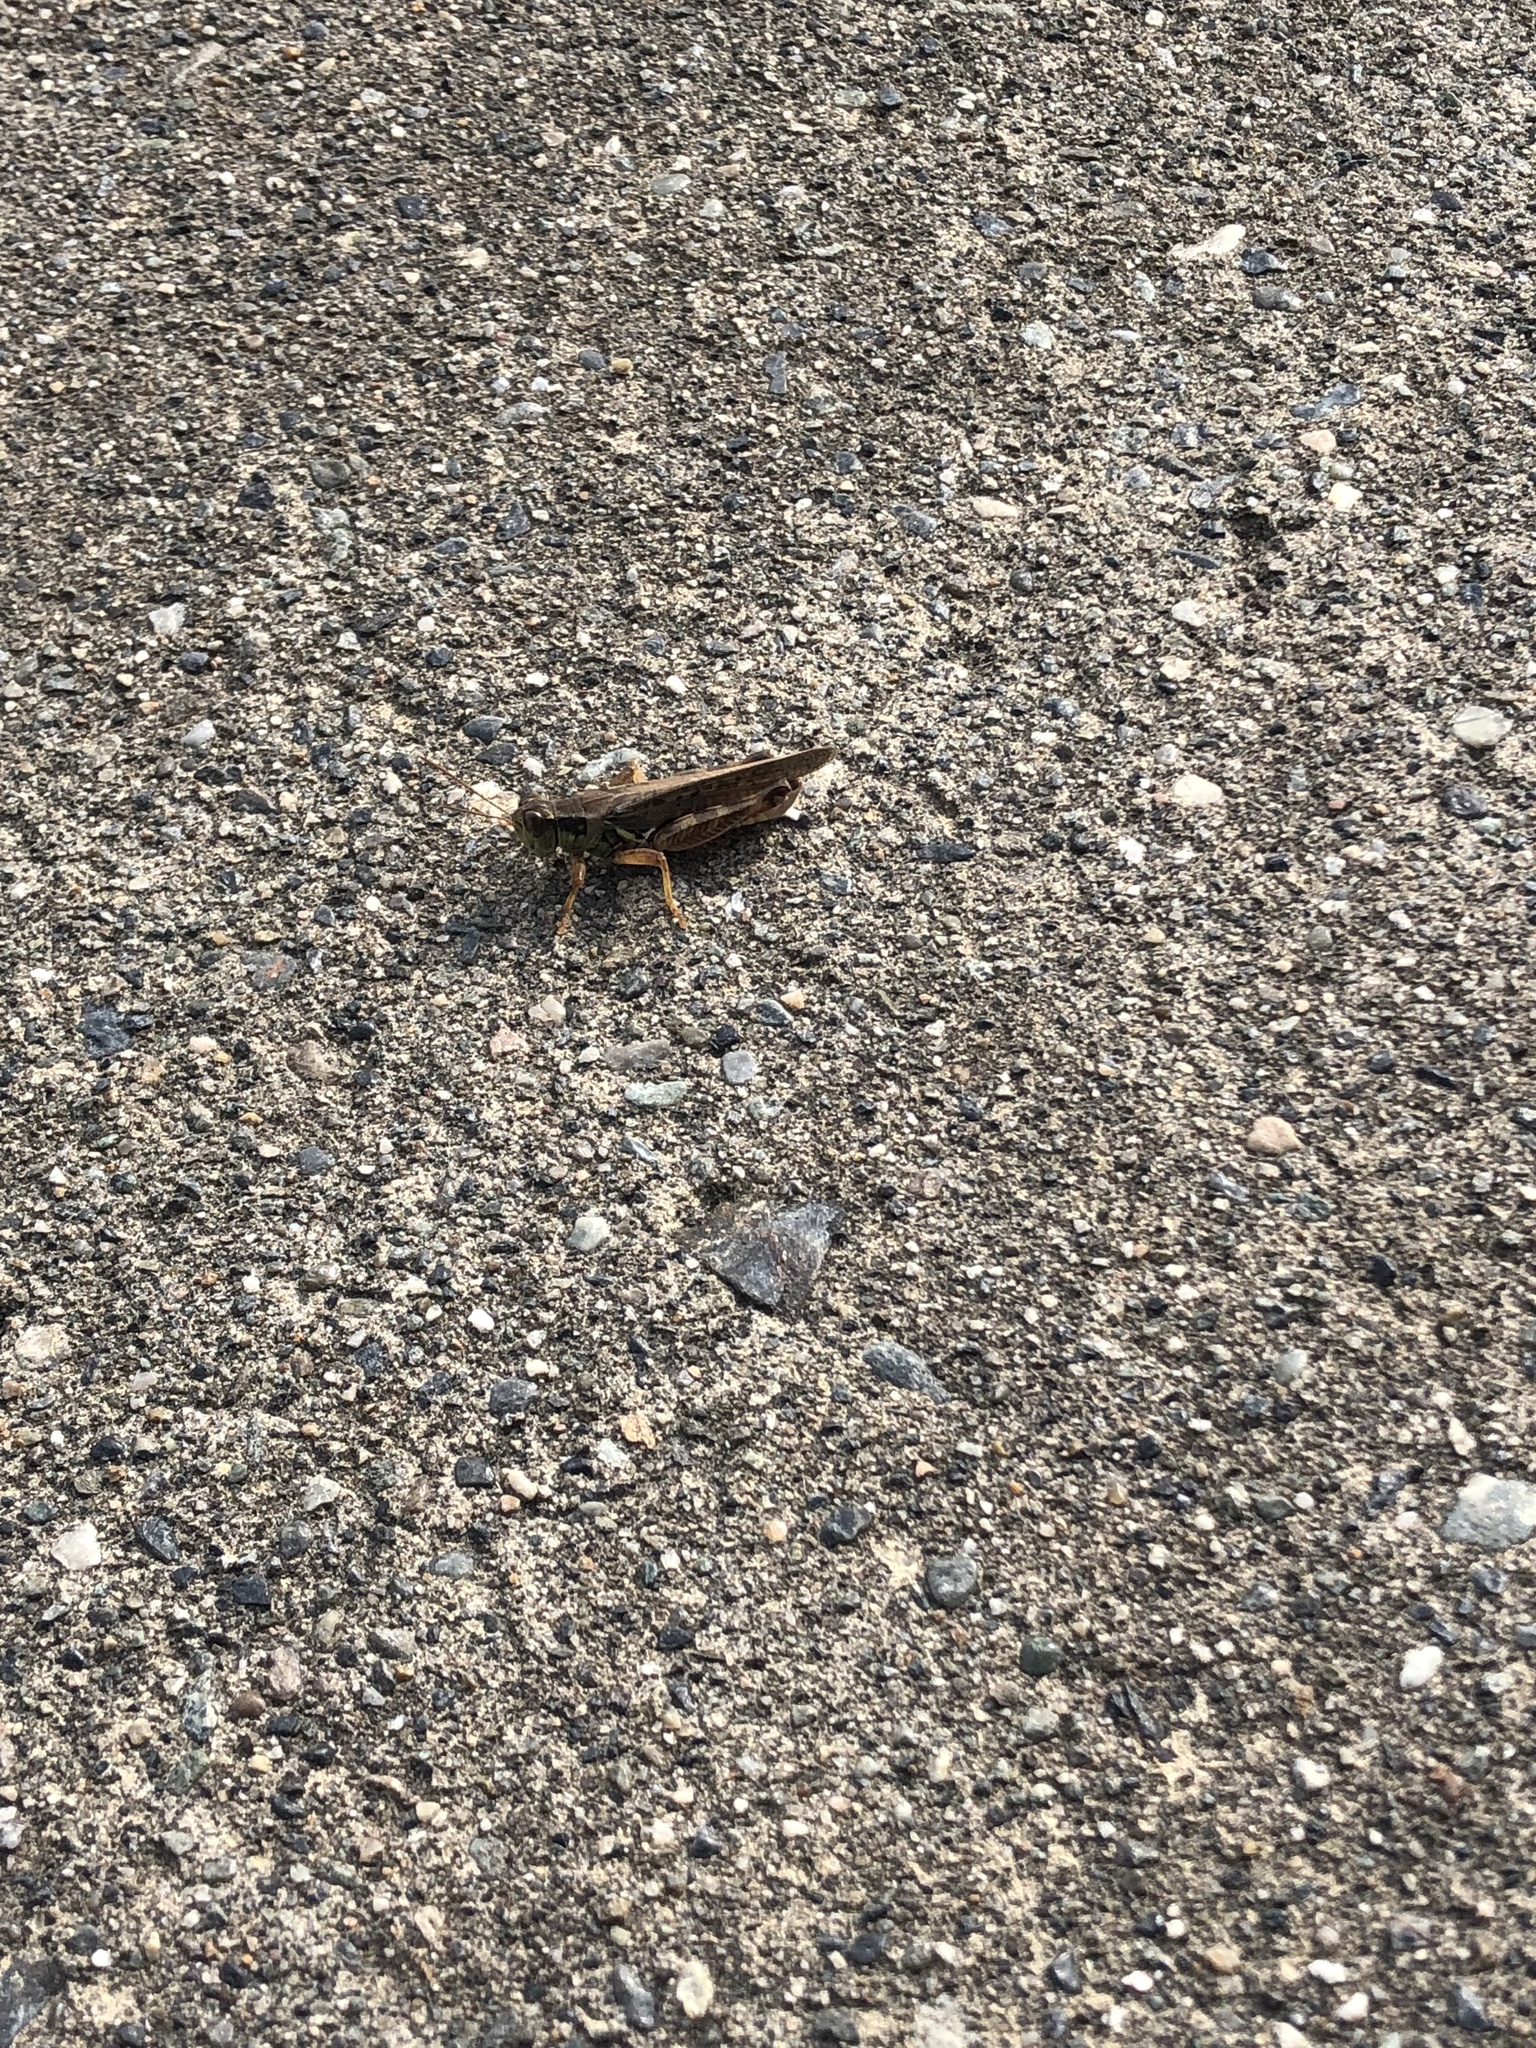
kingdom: Animalia
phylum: Arthropoda
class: Insecta
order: Orthoptera
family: Acrididae
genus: Melanoplus
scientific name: Melanoplus sanguinipes
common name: Migratory grasshopper
